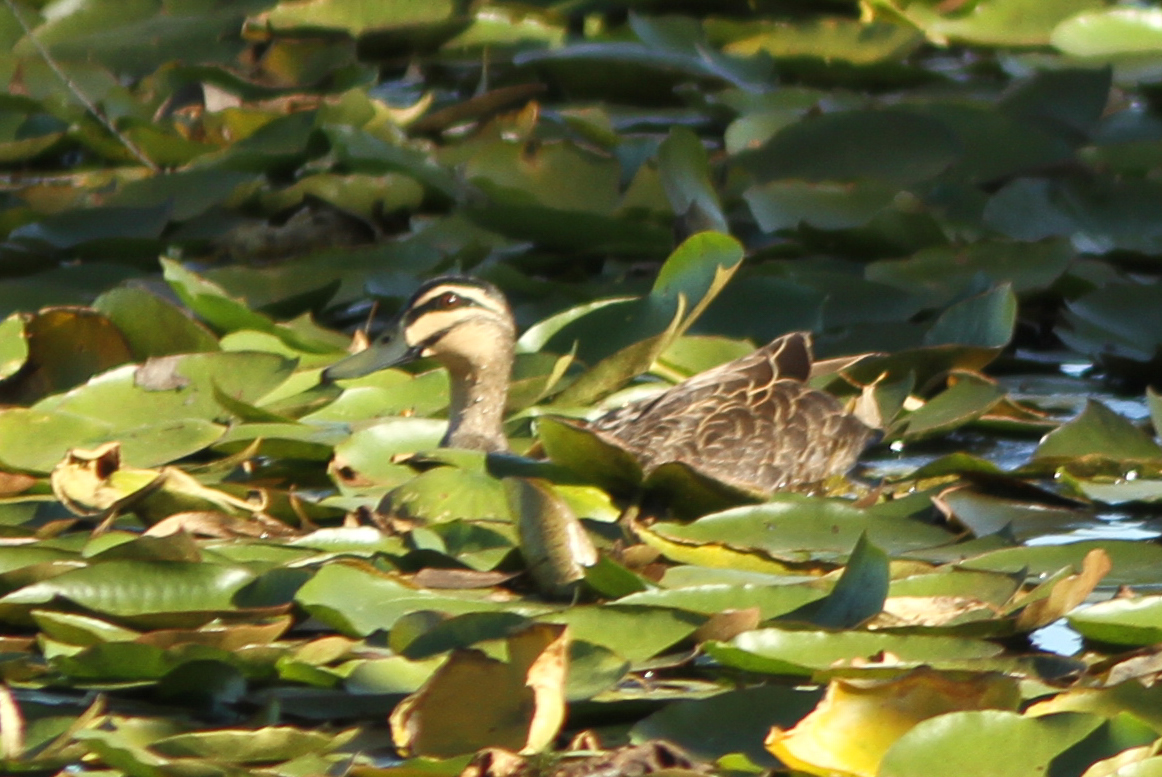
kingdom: Animalia
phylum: Chordata
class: Aves
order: Anseriformes
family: Anatidae
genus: Anas
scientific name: Anas superciliosa
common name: Pacific black duck
